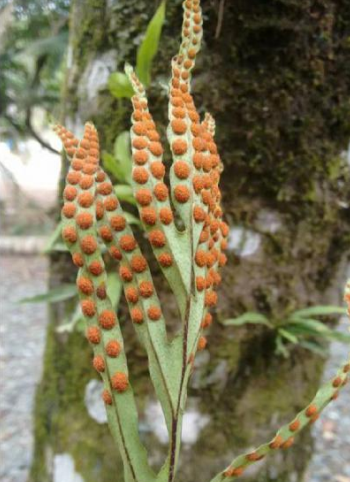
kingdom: Plantae
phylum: Tracheophyta
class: Polypodiopsida
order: Polypodiales
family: Polypodiaceae
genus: Pleopeltis
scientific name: Pleopeltis pleopeltifolia
